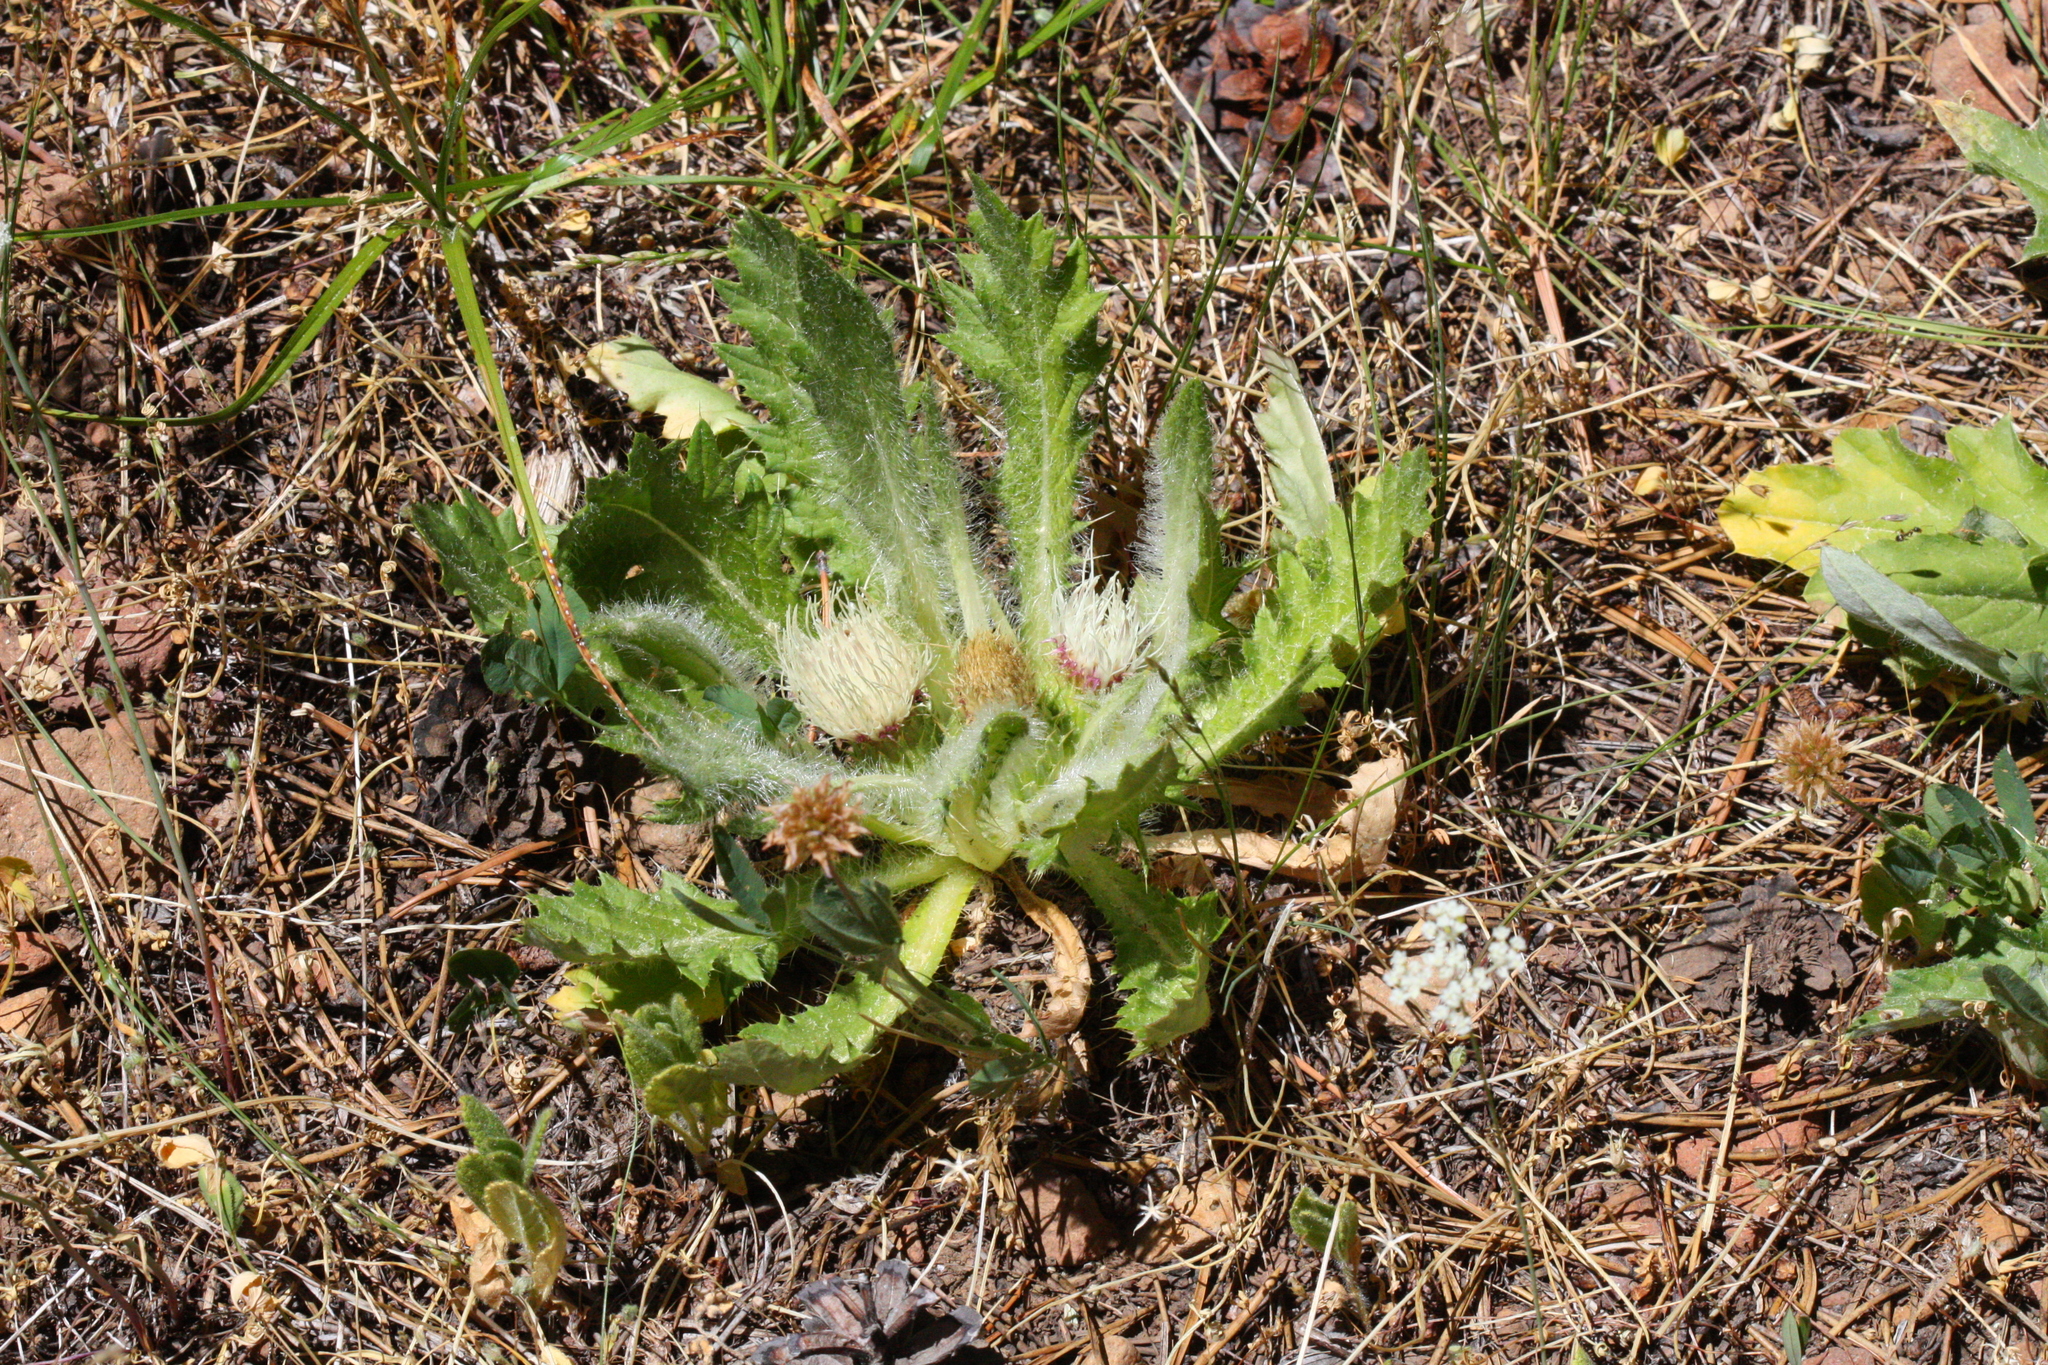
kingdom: Plantae
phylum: Tracheophyta
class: Magnoliopsida
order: Asterales
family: Asteraceae
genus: Cirsium
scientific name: Cirsium scariosum
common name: Meadow thistle
